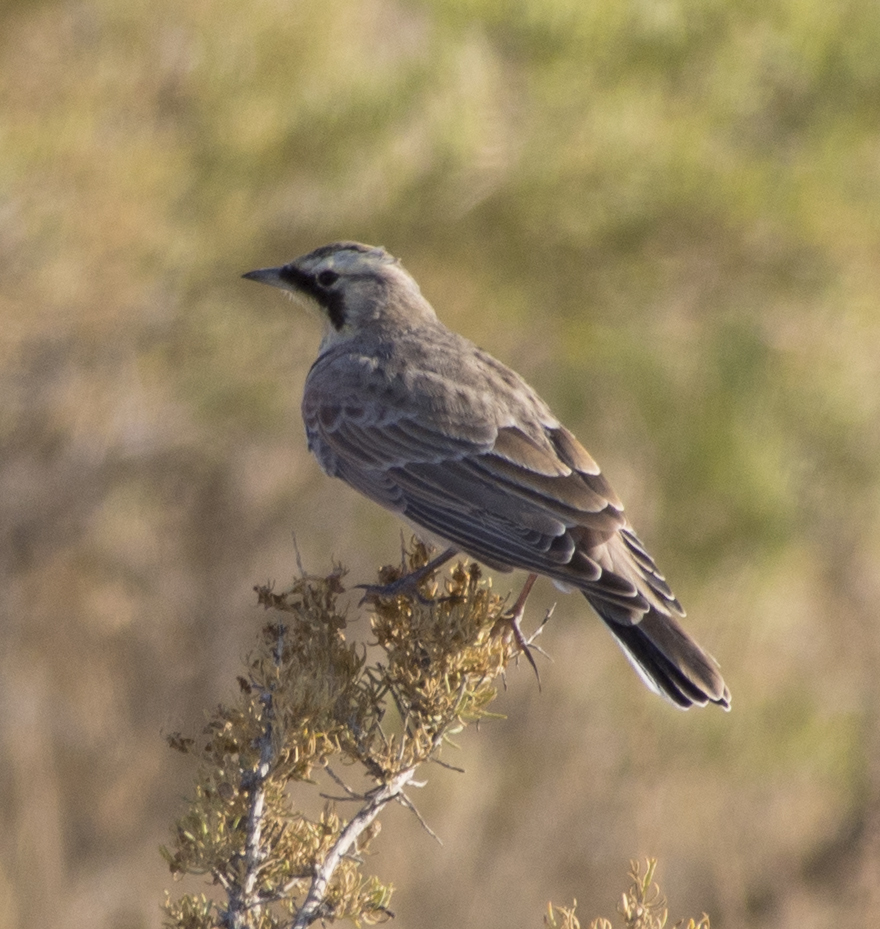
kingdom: Animalia
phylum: Chordata
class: Aves
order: Passeriformes
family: Alaudidae
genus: Eremophila
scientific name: Eremophila alpestris
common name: Horned lark
